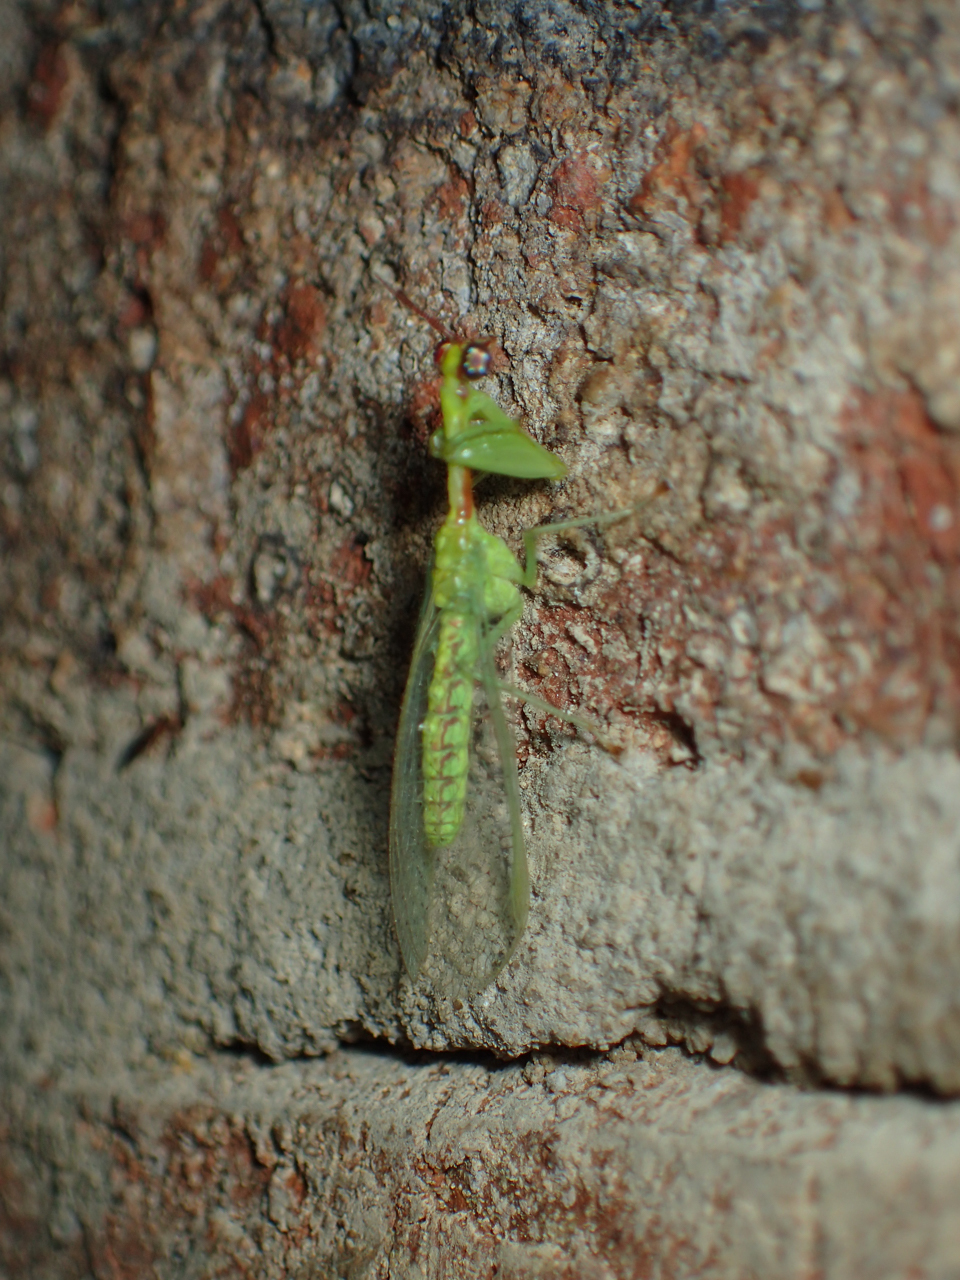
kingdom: Animalia
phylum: Arthropoda
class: Insecta
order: Neuroptera
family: Mantispidae
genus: Zeugomantispa
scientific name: Zeugomantispa minuta
